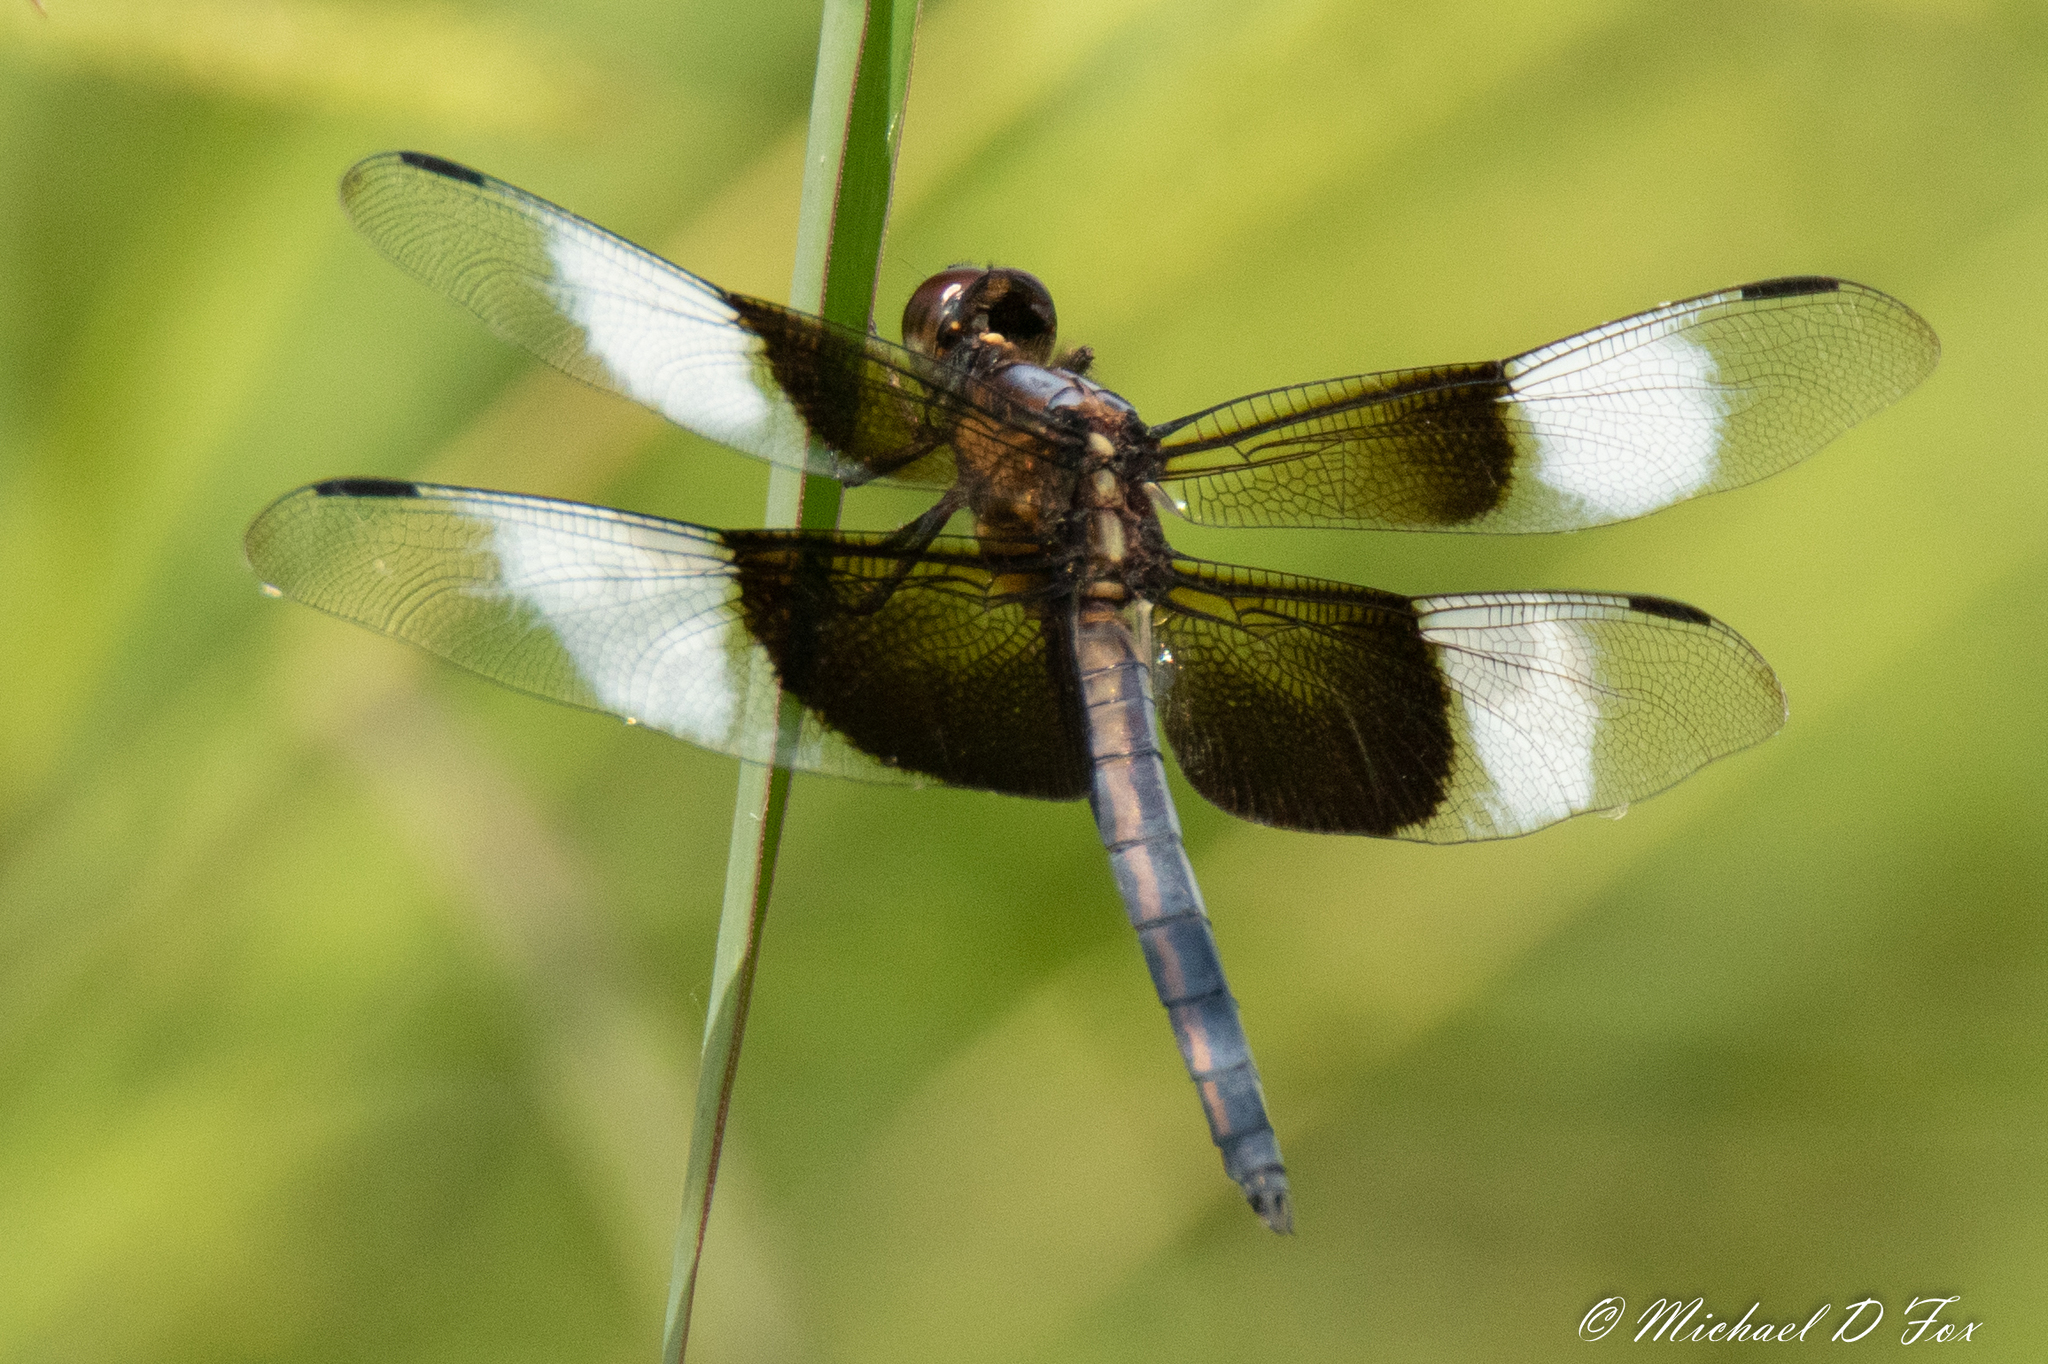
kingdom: Animalia
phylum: Arthropoda
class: Insecta
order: Odonata
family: Libellulidae
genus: Libellula
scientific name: Libellula luctuosa
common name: Widow skimmer
